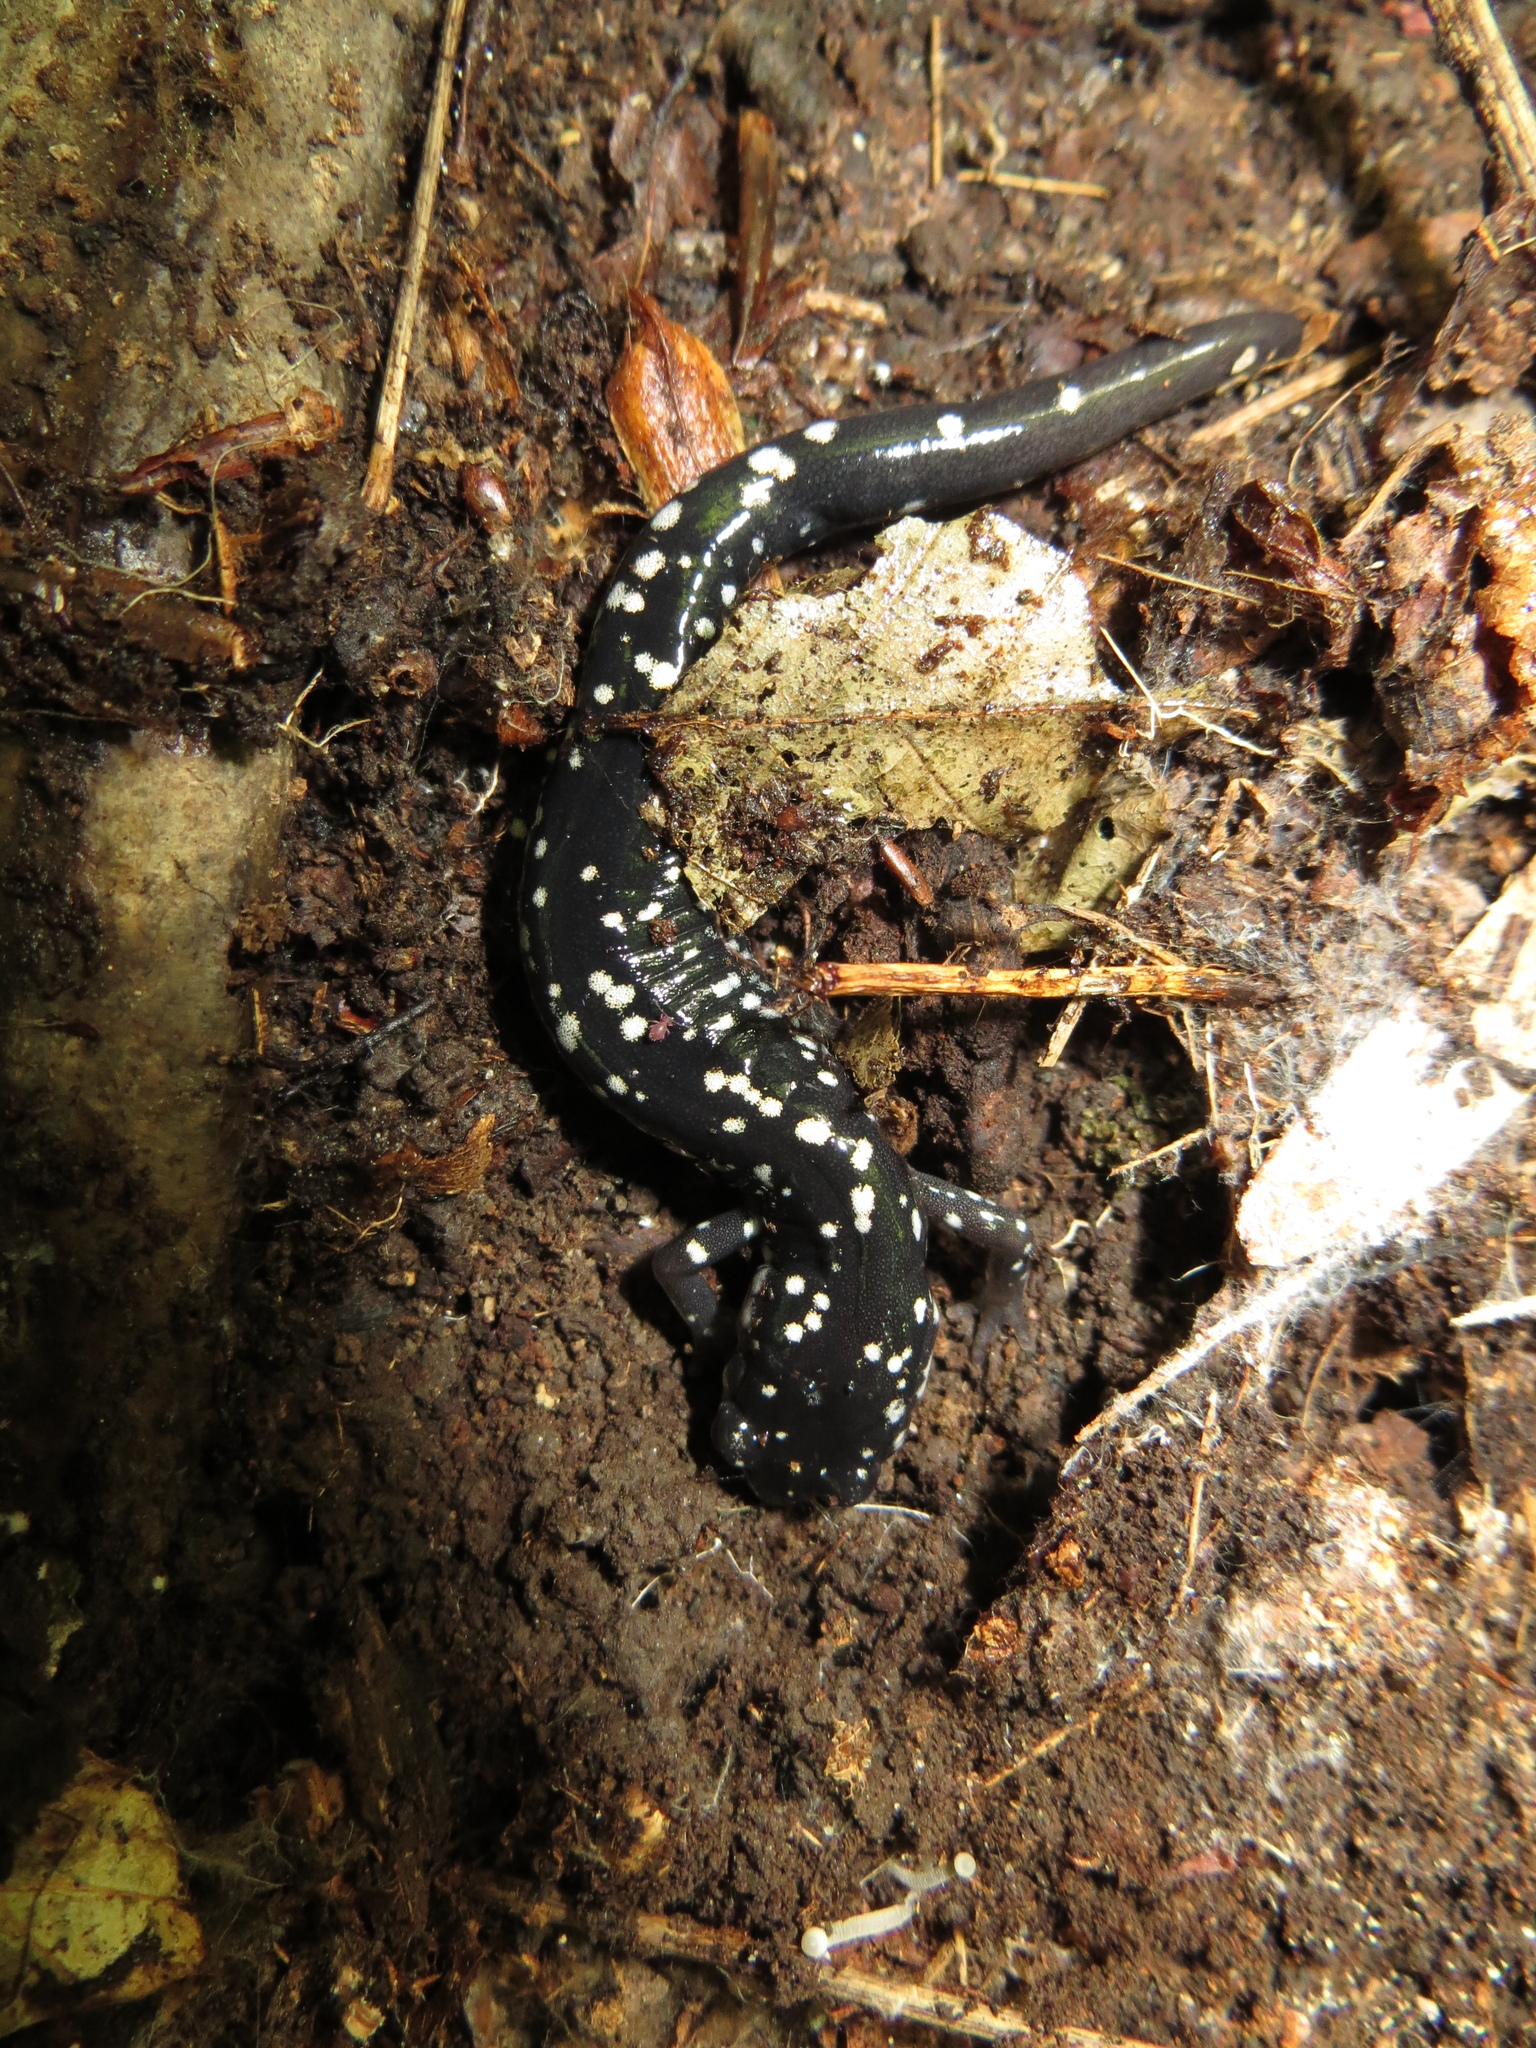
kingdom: Animalia
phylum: Chordata
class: Amphibia
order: Caudata
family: Plethodontidae
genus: Plethodon
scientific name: Plethodon glutinosus
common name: Northern slimy salamander
